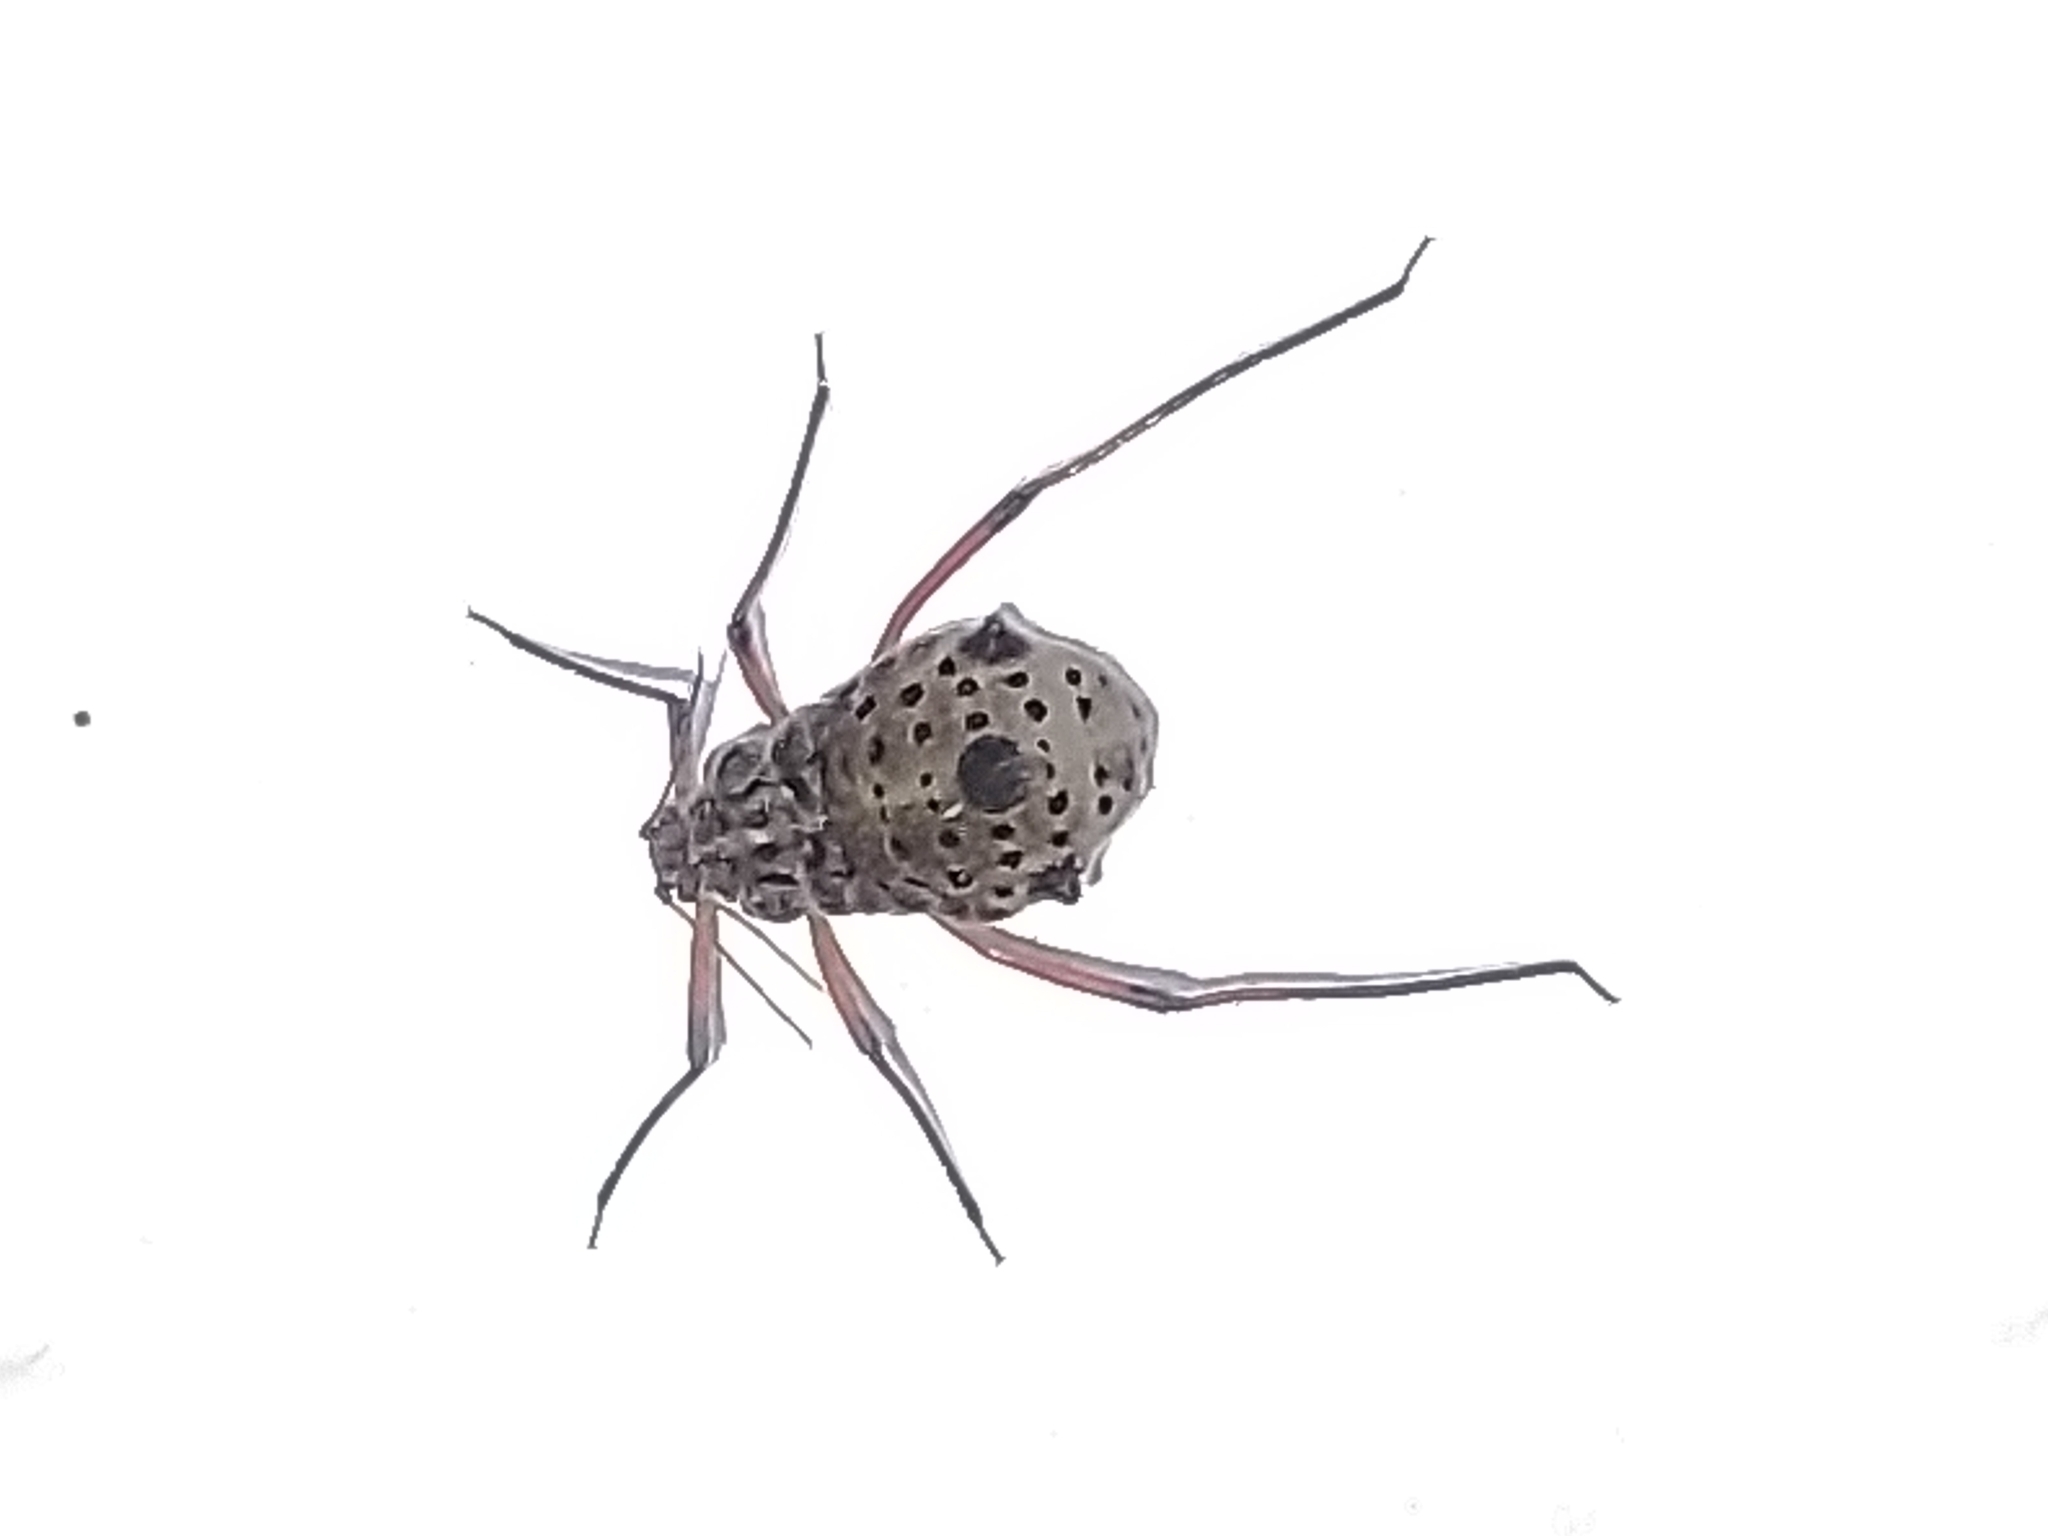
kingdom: Animalia
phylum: Arthropoda
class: Insecta
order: Hemiptera
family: Aphididae
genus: Tuberolachnus
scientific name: Tuberolachnus salignus
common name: Giant willow aphid
